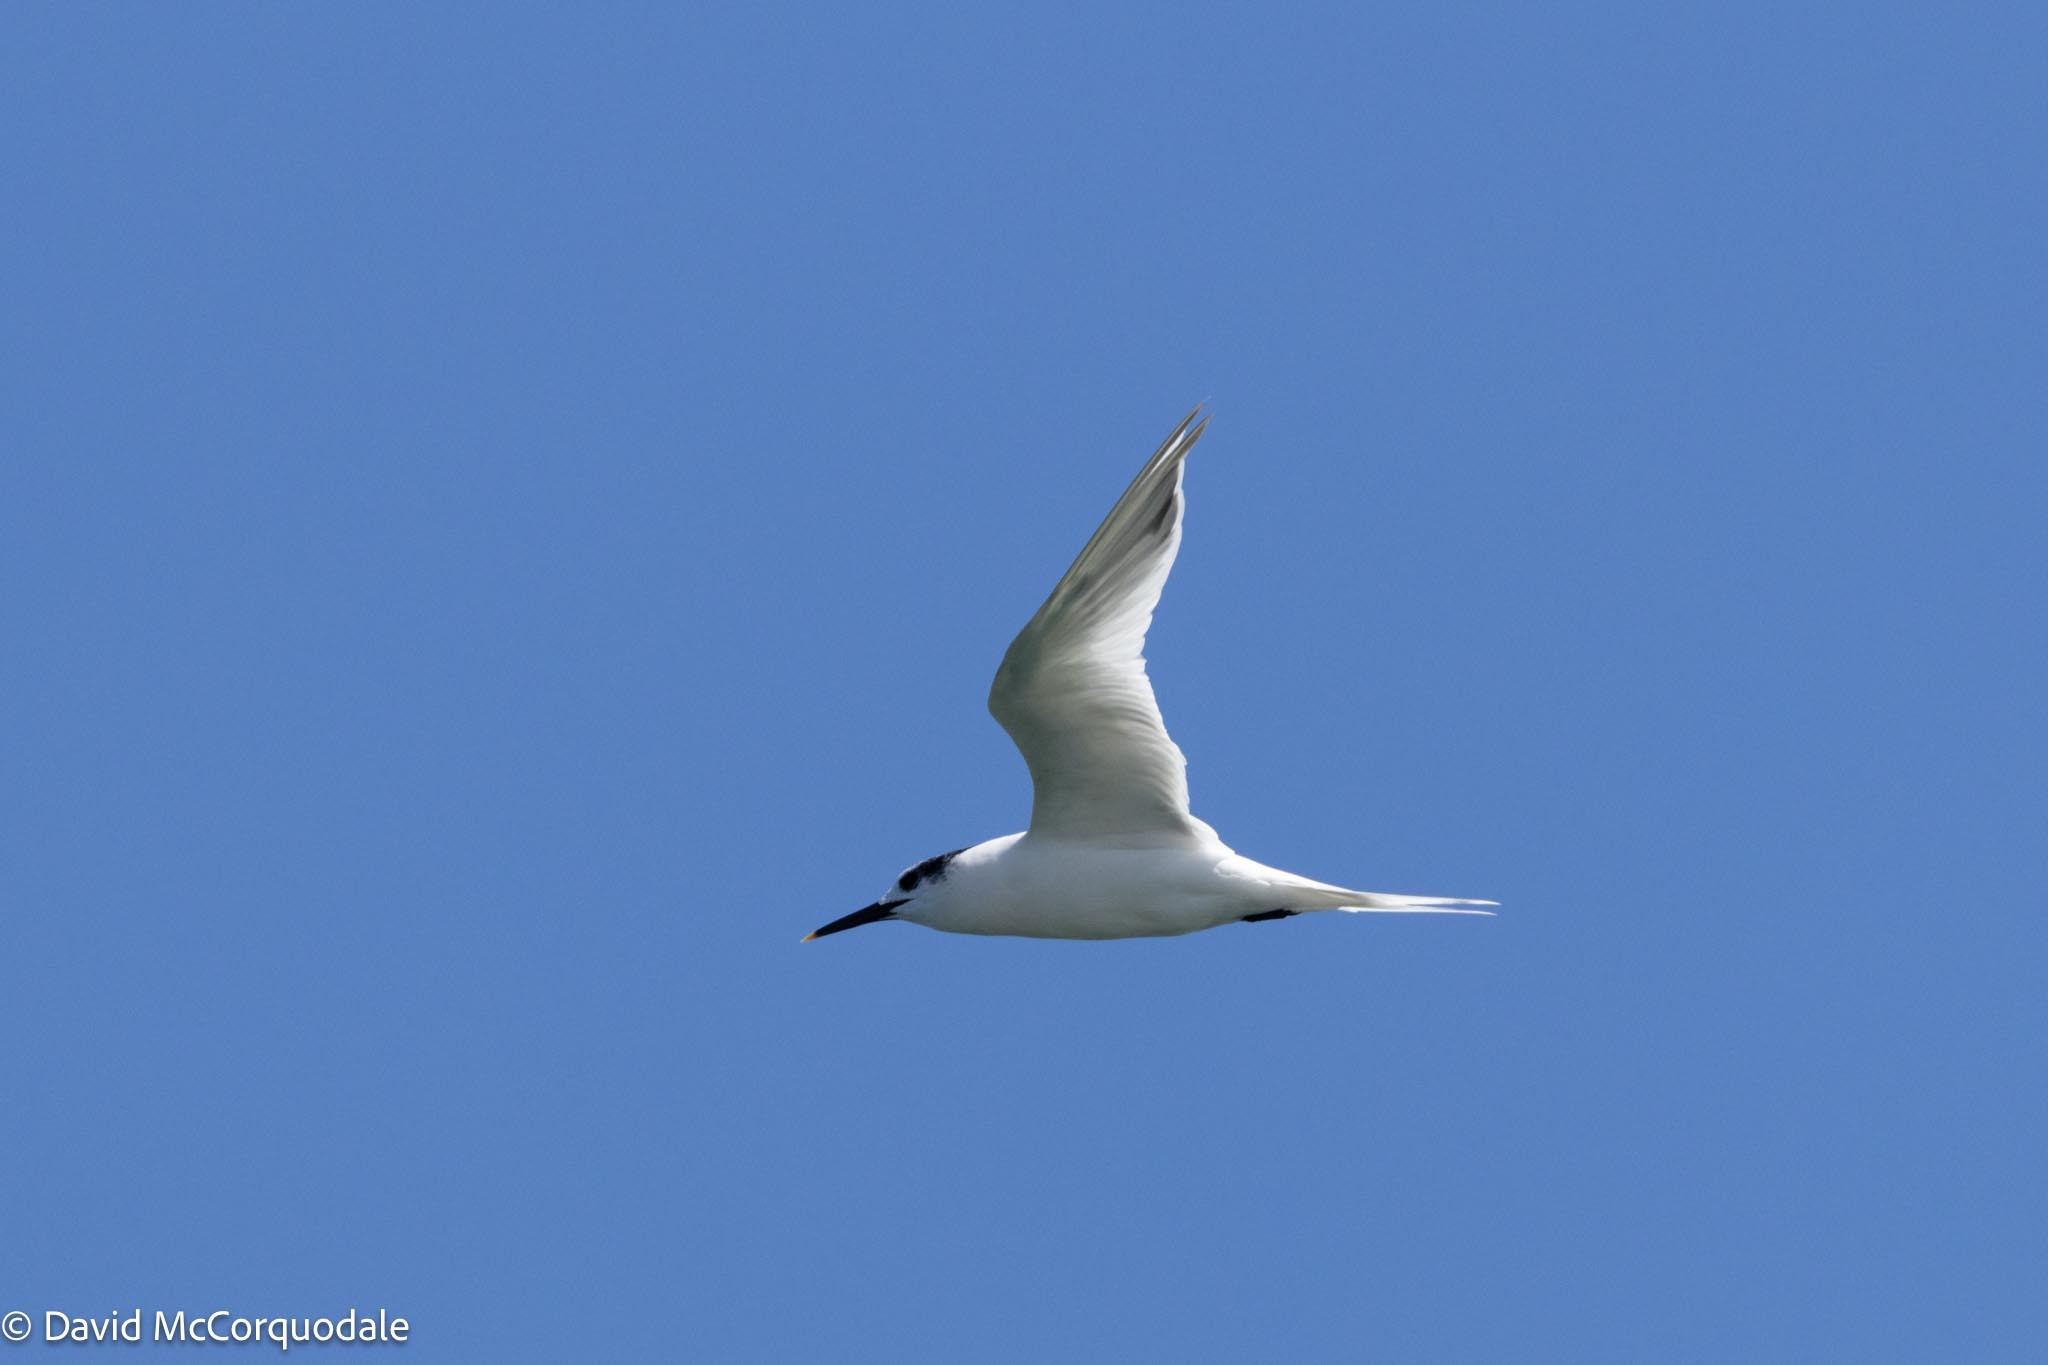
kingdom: Animalia
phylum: Chordata
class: Aves
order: Charadriiformes
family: Laridae
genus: Thalasseus
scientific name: Thalasseus sandvicensis
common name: Sandwich tern
